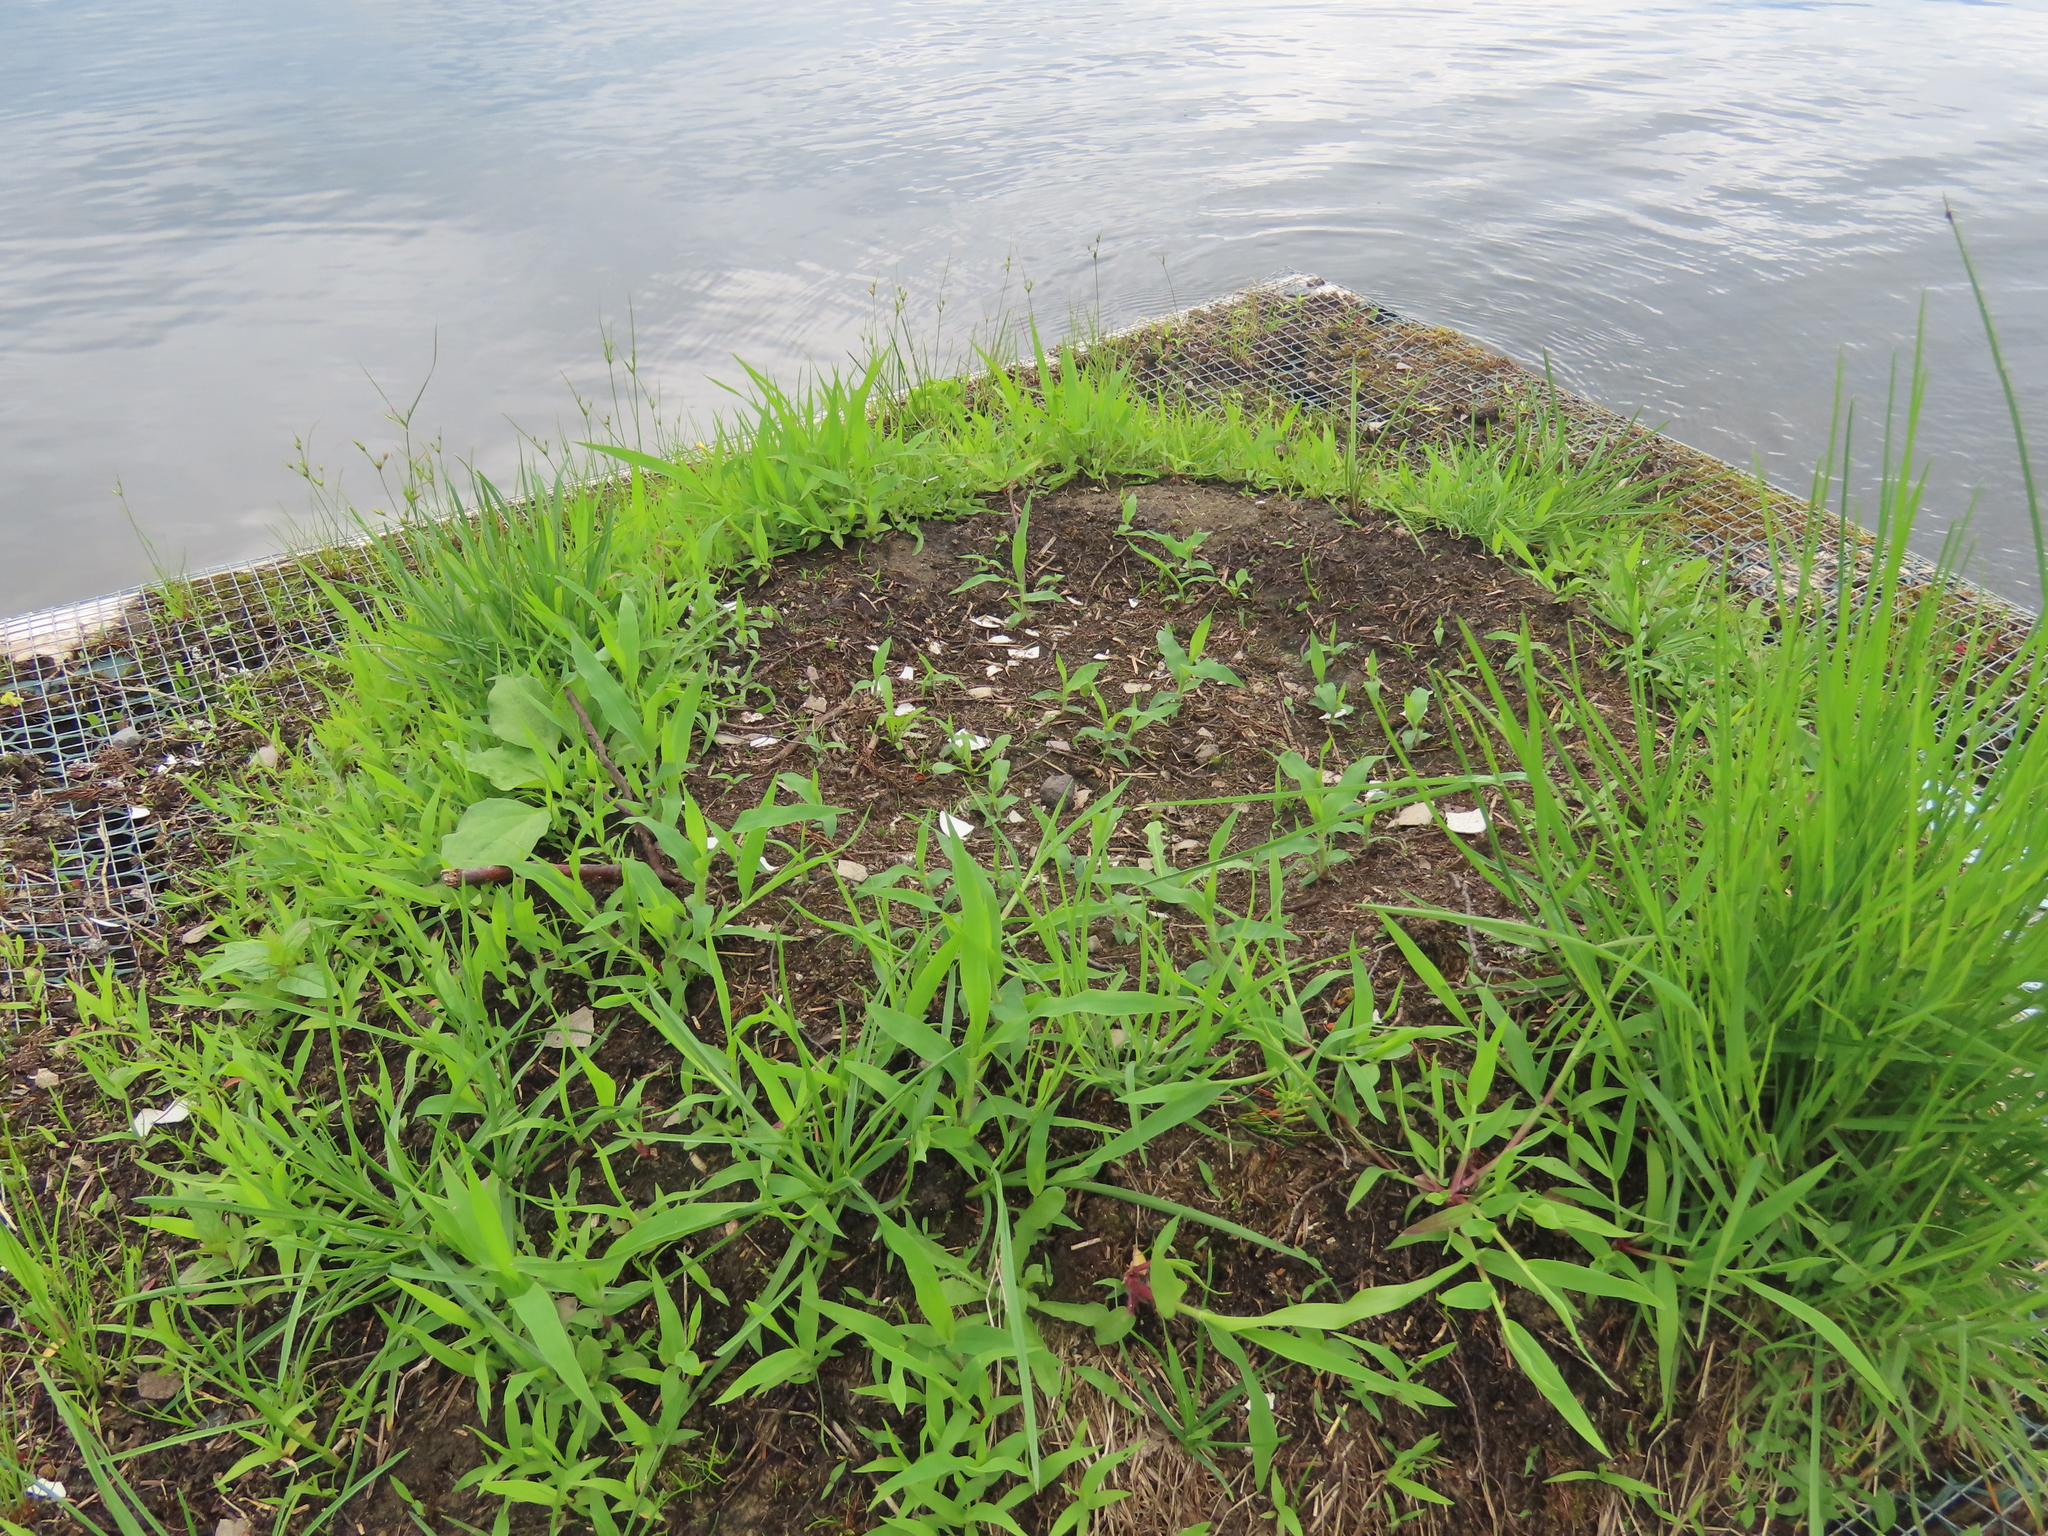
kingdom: Animalia
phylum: Chordata
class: Aves
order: Gaviiformes
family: Gaviidae
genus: Gavia
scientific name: Gavia immer
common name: Common loon
